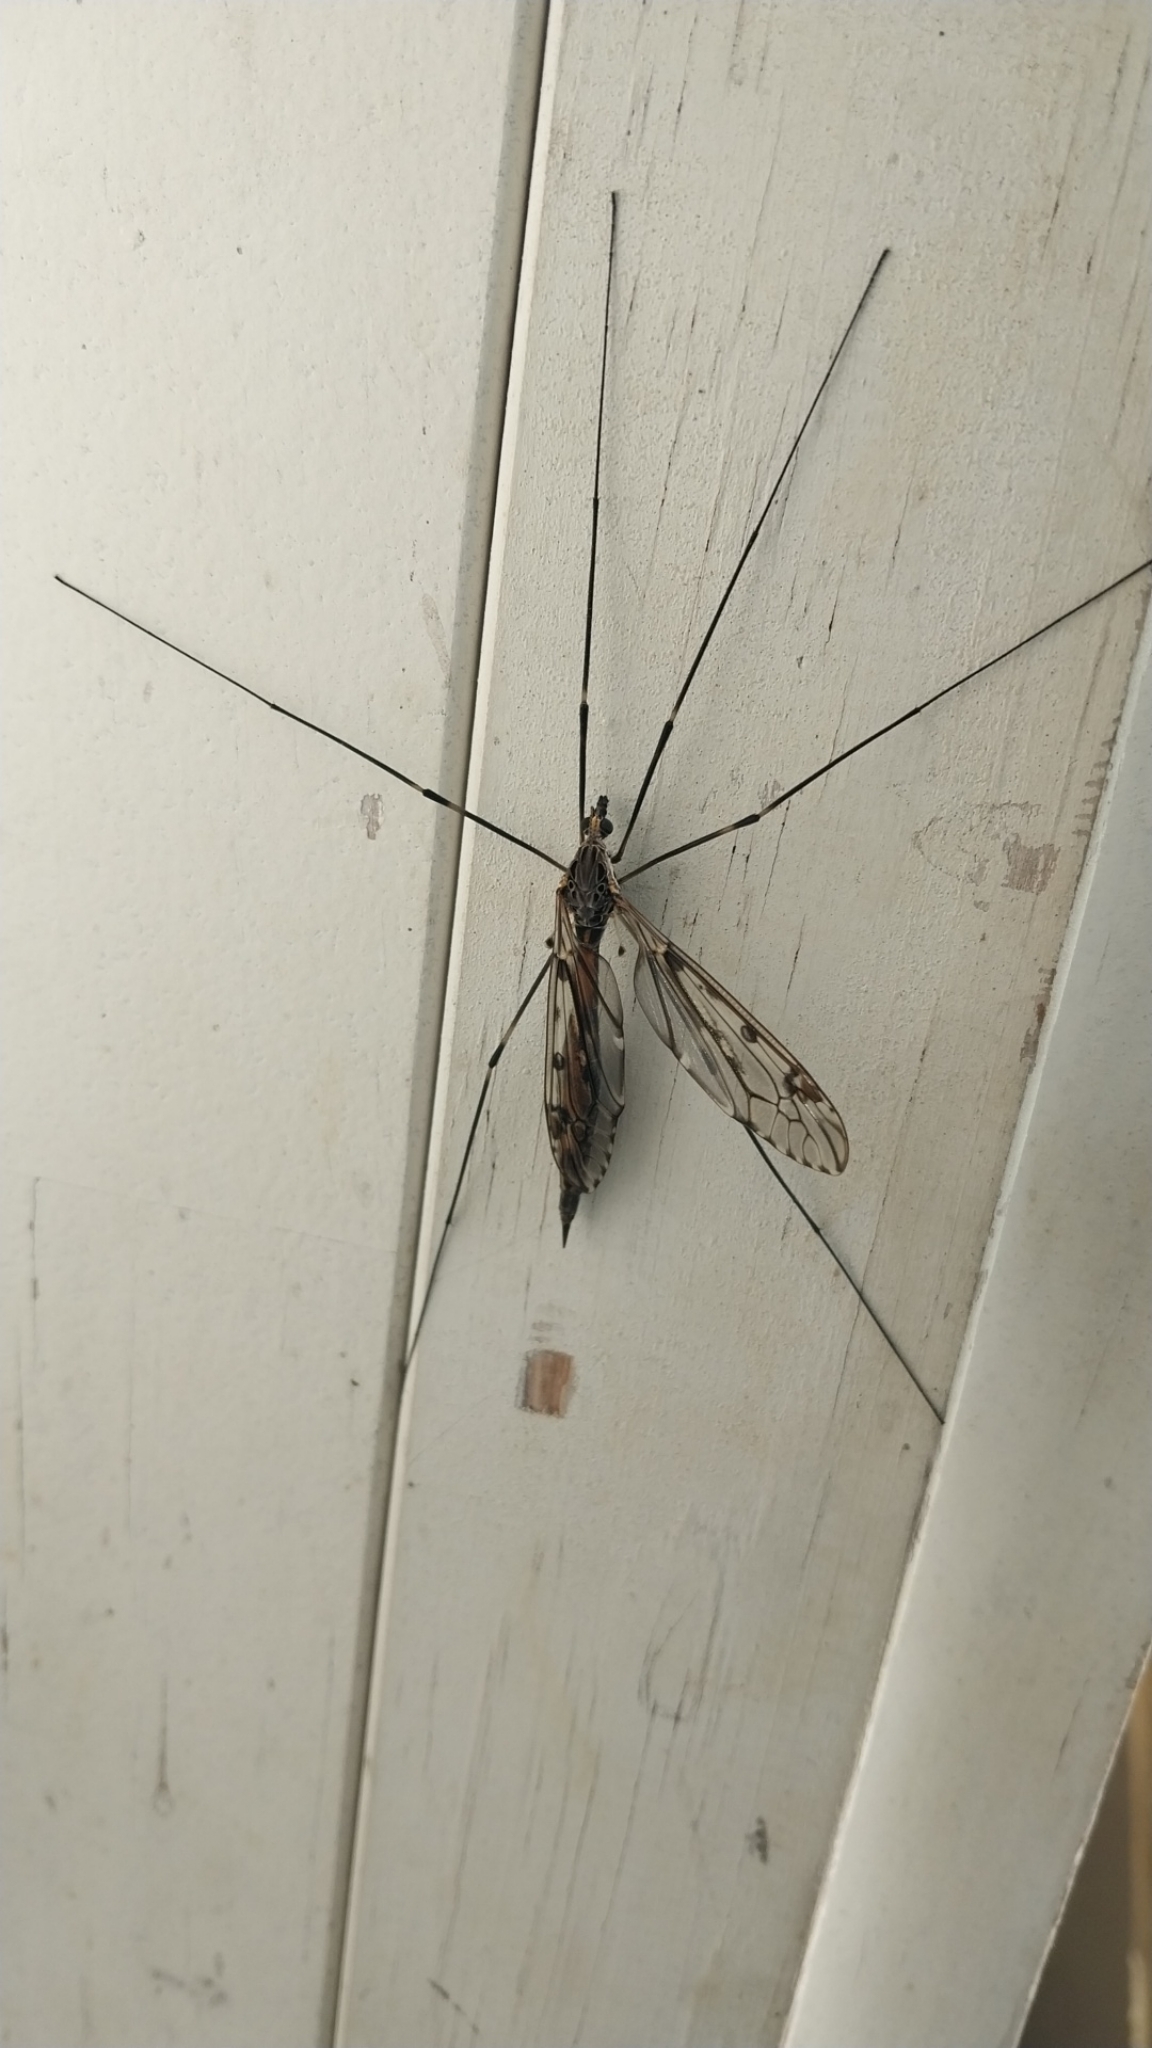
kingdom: Animalia
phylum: Arthropoda
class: Insecta
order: Diptera
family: Tipulidae
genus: Tipula
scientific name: Tipula abdominalis
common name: Giant crane fly
